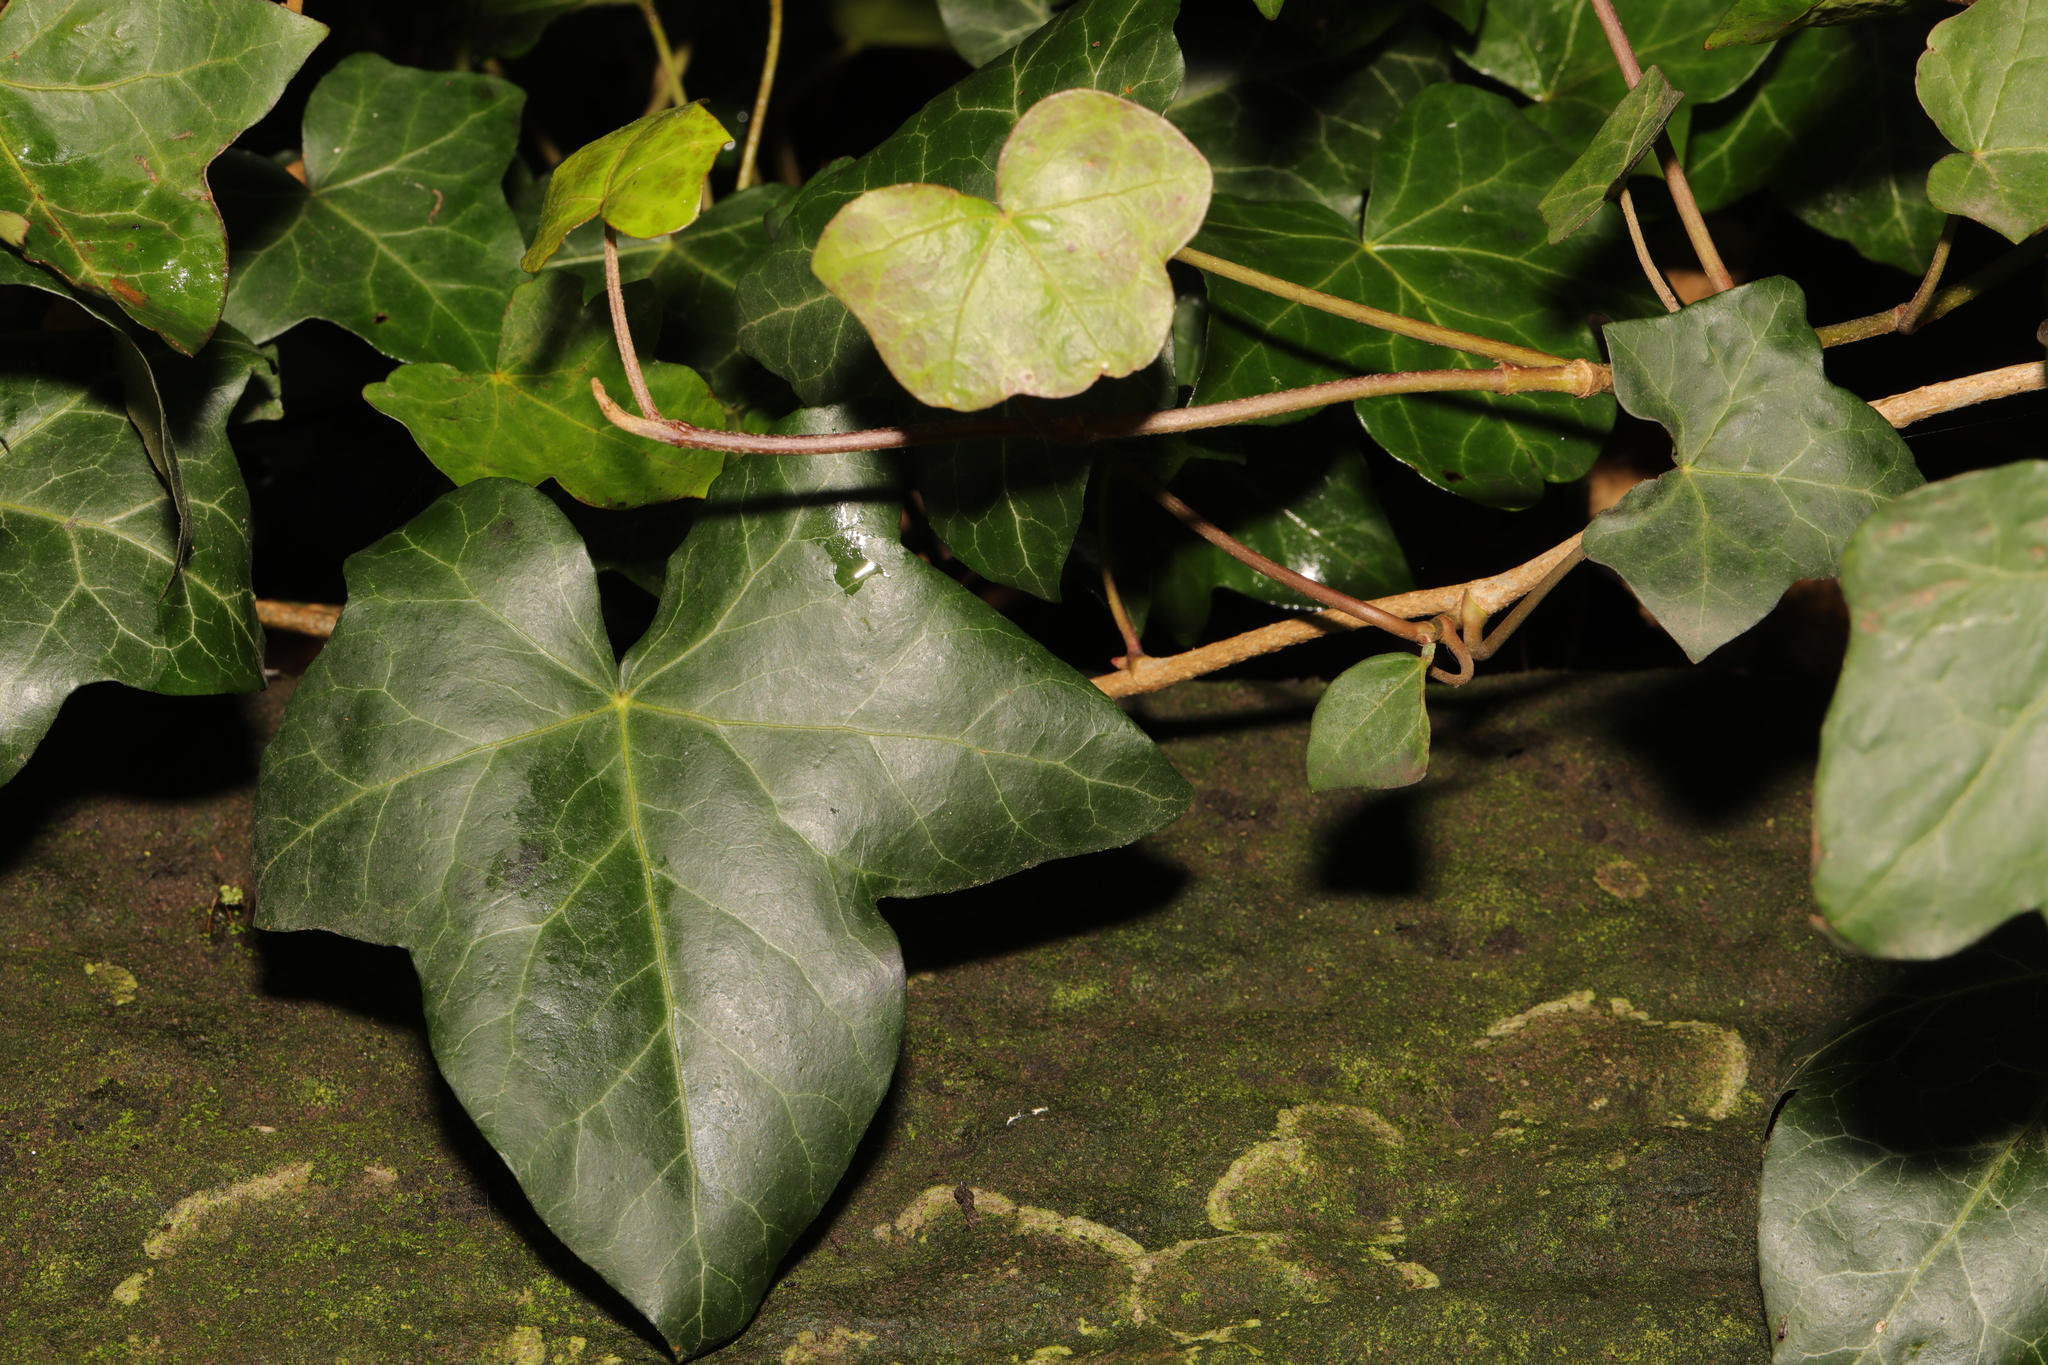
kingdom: Plantae
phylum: Tracheophyta
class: Magnoliopsida
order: Apiales
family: Araliaceae
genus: Hedera
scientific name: Hedera helix
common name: Ivy
